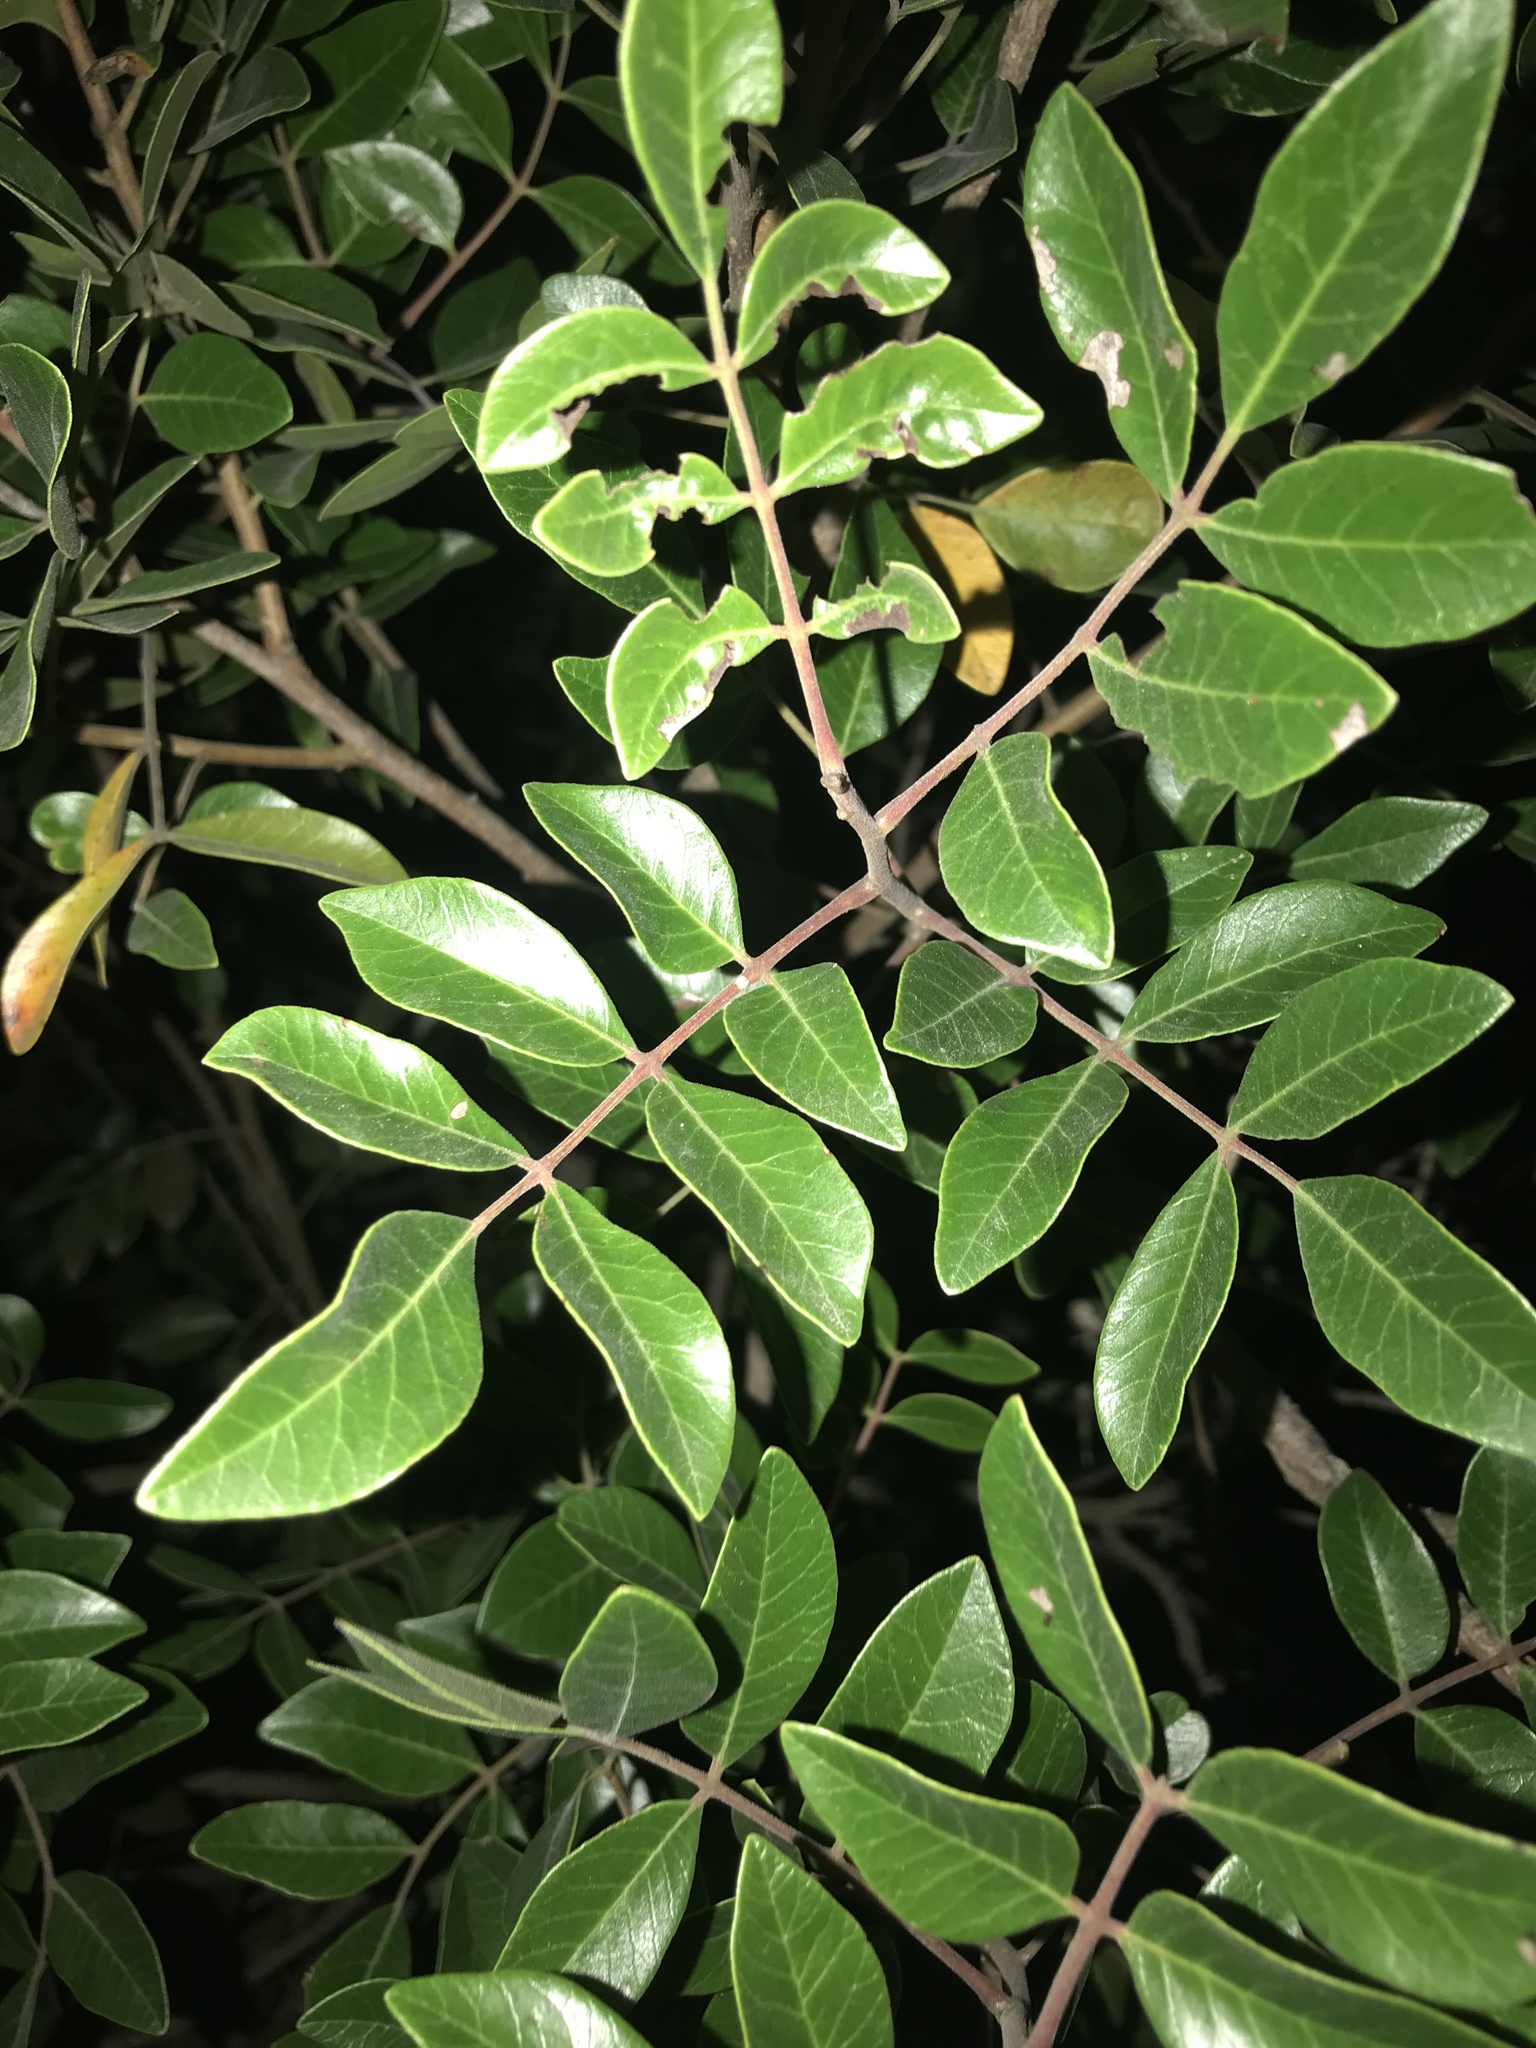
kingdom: Plantae
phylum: Tracheophyta
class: Magnoliopsida
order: Sapindales
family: Anacardiaceae
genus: Rhus
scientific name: Rhus virens
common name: Evergreen sumac
